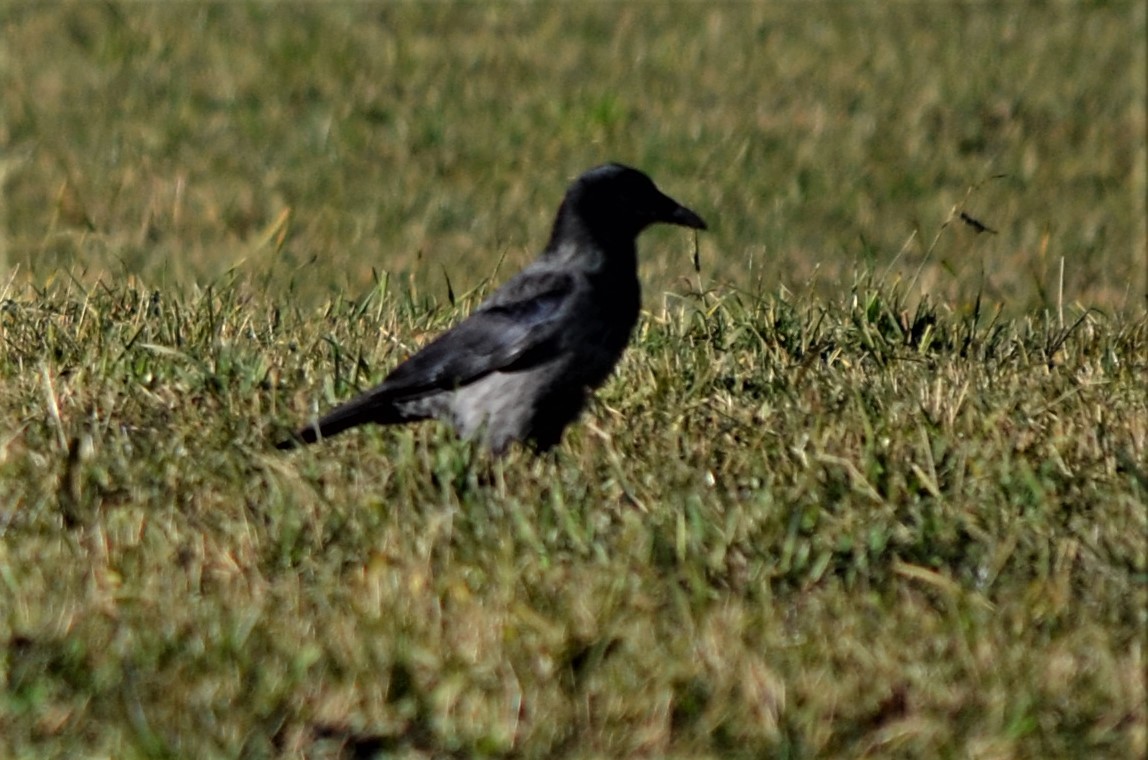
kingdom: Animalia
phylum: Chordata
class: Aves
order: Passeriformes
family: Corvidae
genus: Corvus
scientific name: Corvus
